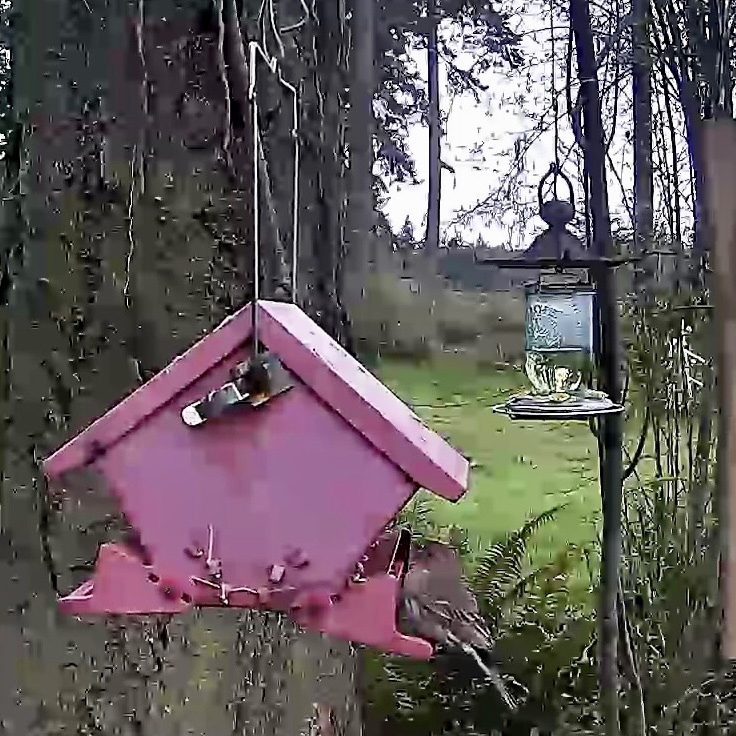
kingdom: Animalia
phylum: Chordata
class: Aves
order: Passeriformes
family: Fringillidae
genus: Haemorhous
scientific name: Haemorhous mexicanus
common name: House finch
